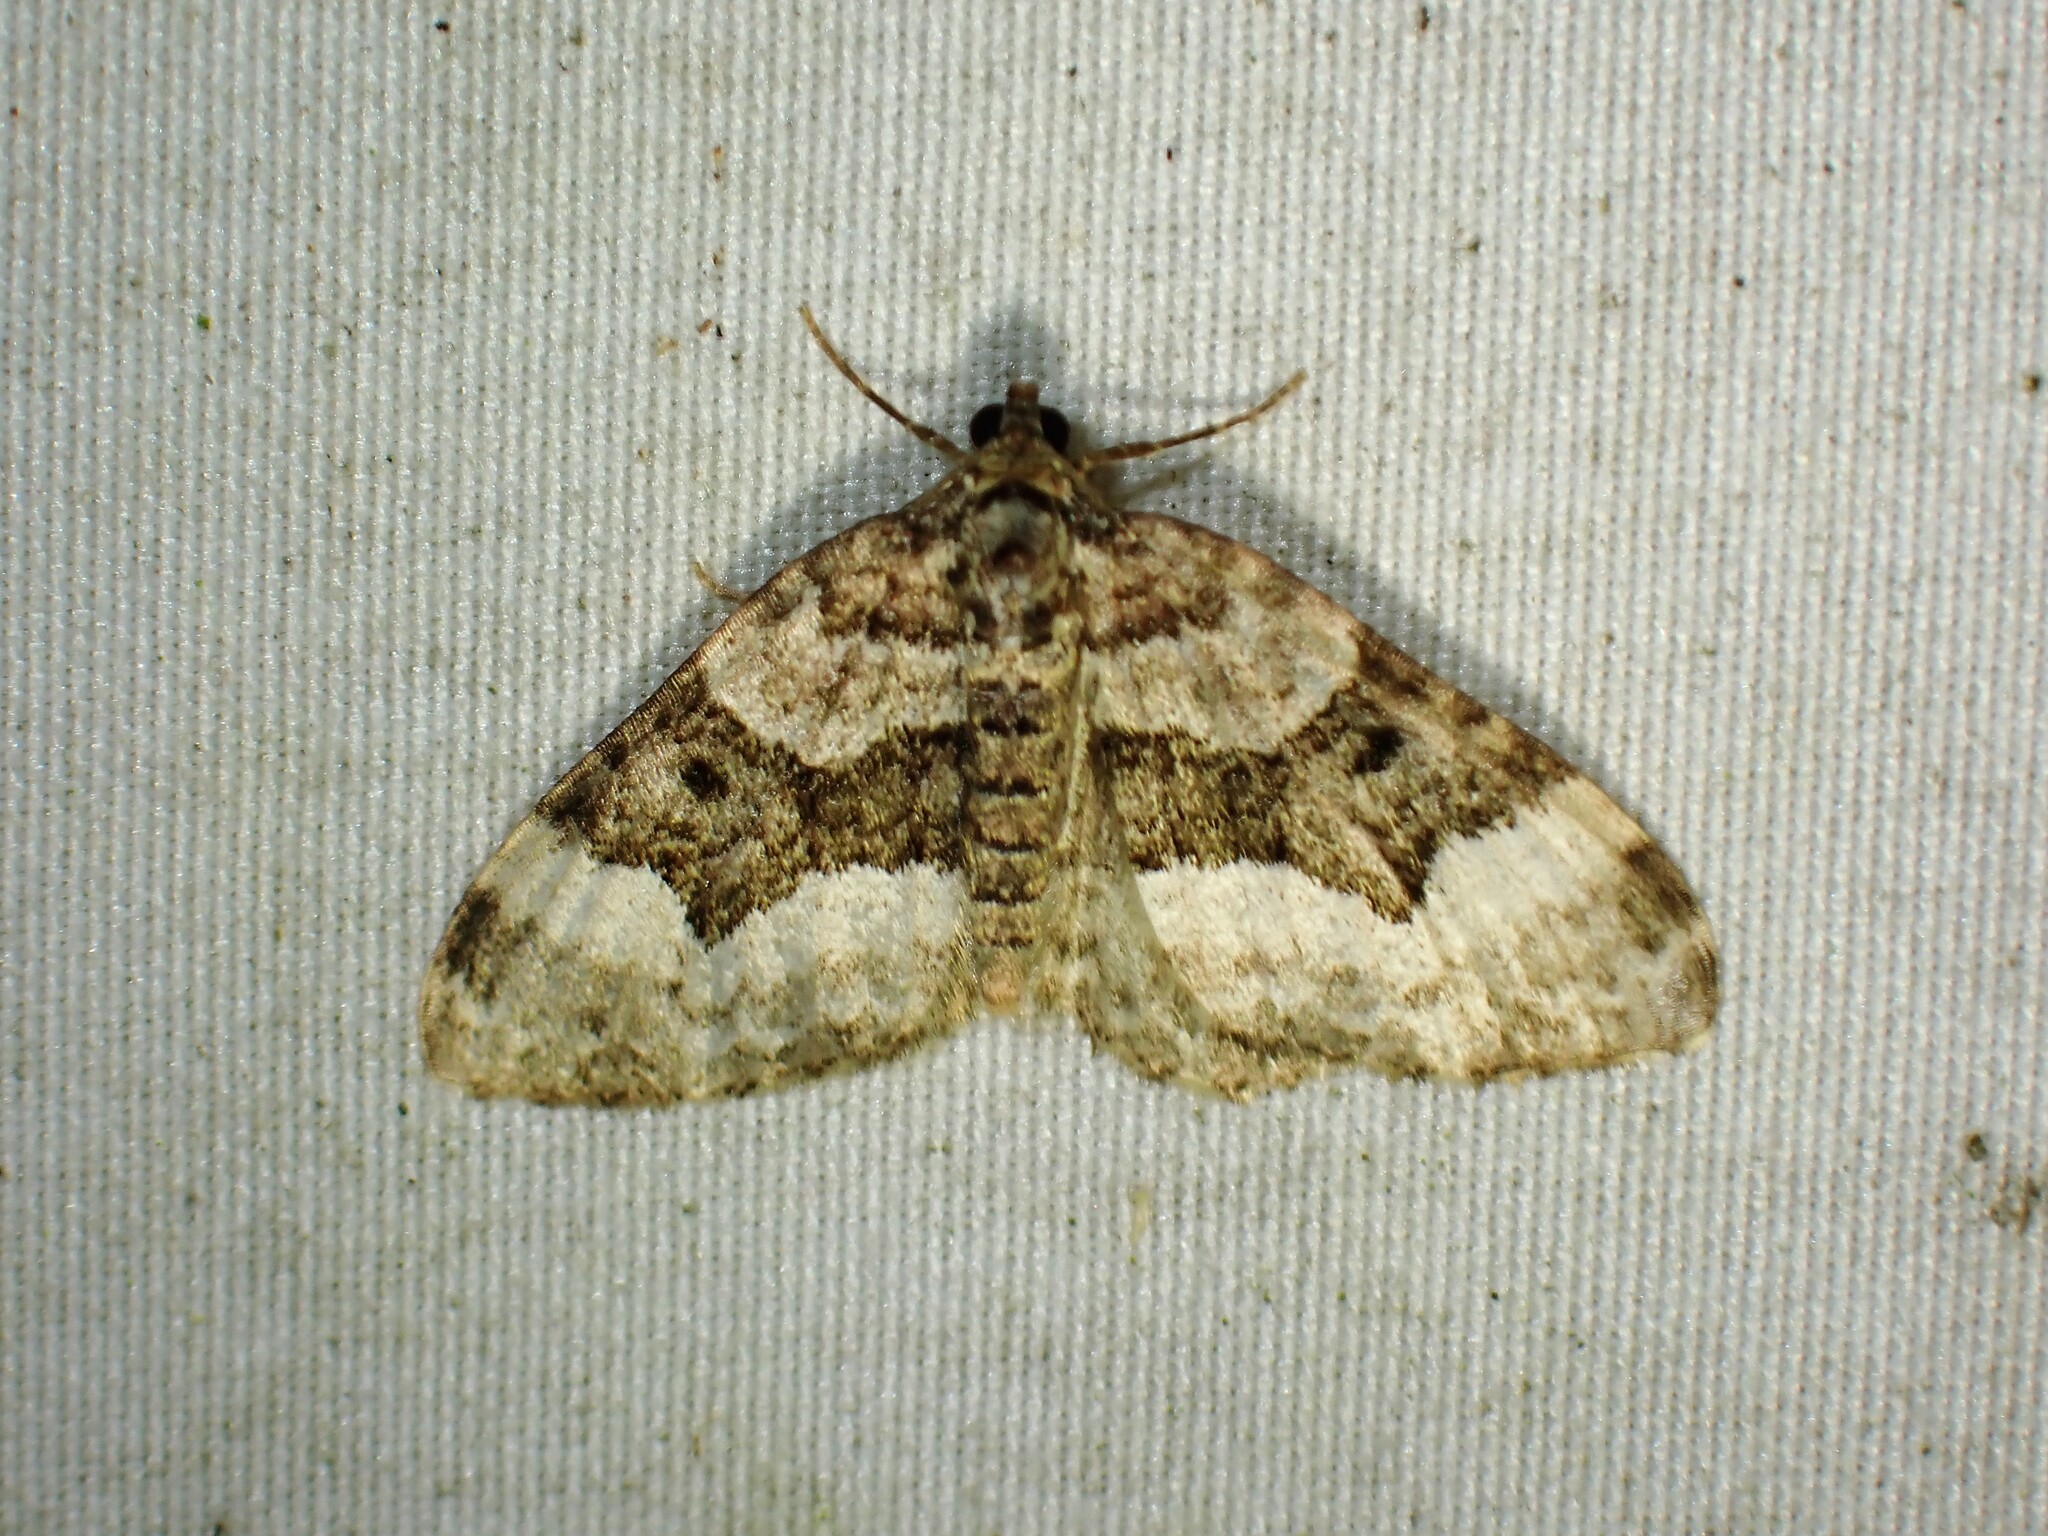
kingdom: Animalia
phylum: Arthropoda
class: Insecta
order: Lepidoptera
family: Geometridae
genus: Euphyia
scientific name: Euphyia intermediata
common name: Sharp-angled carpet
